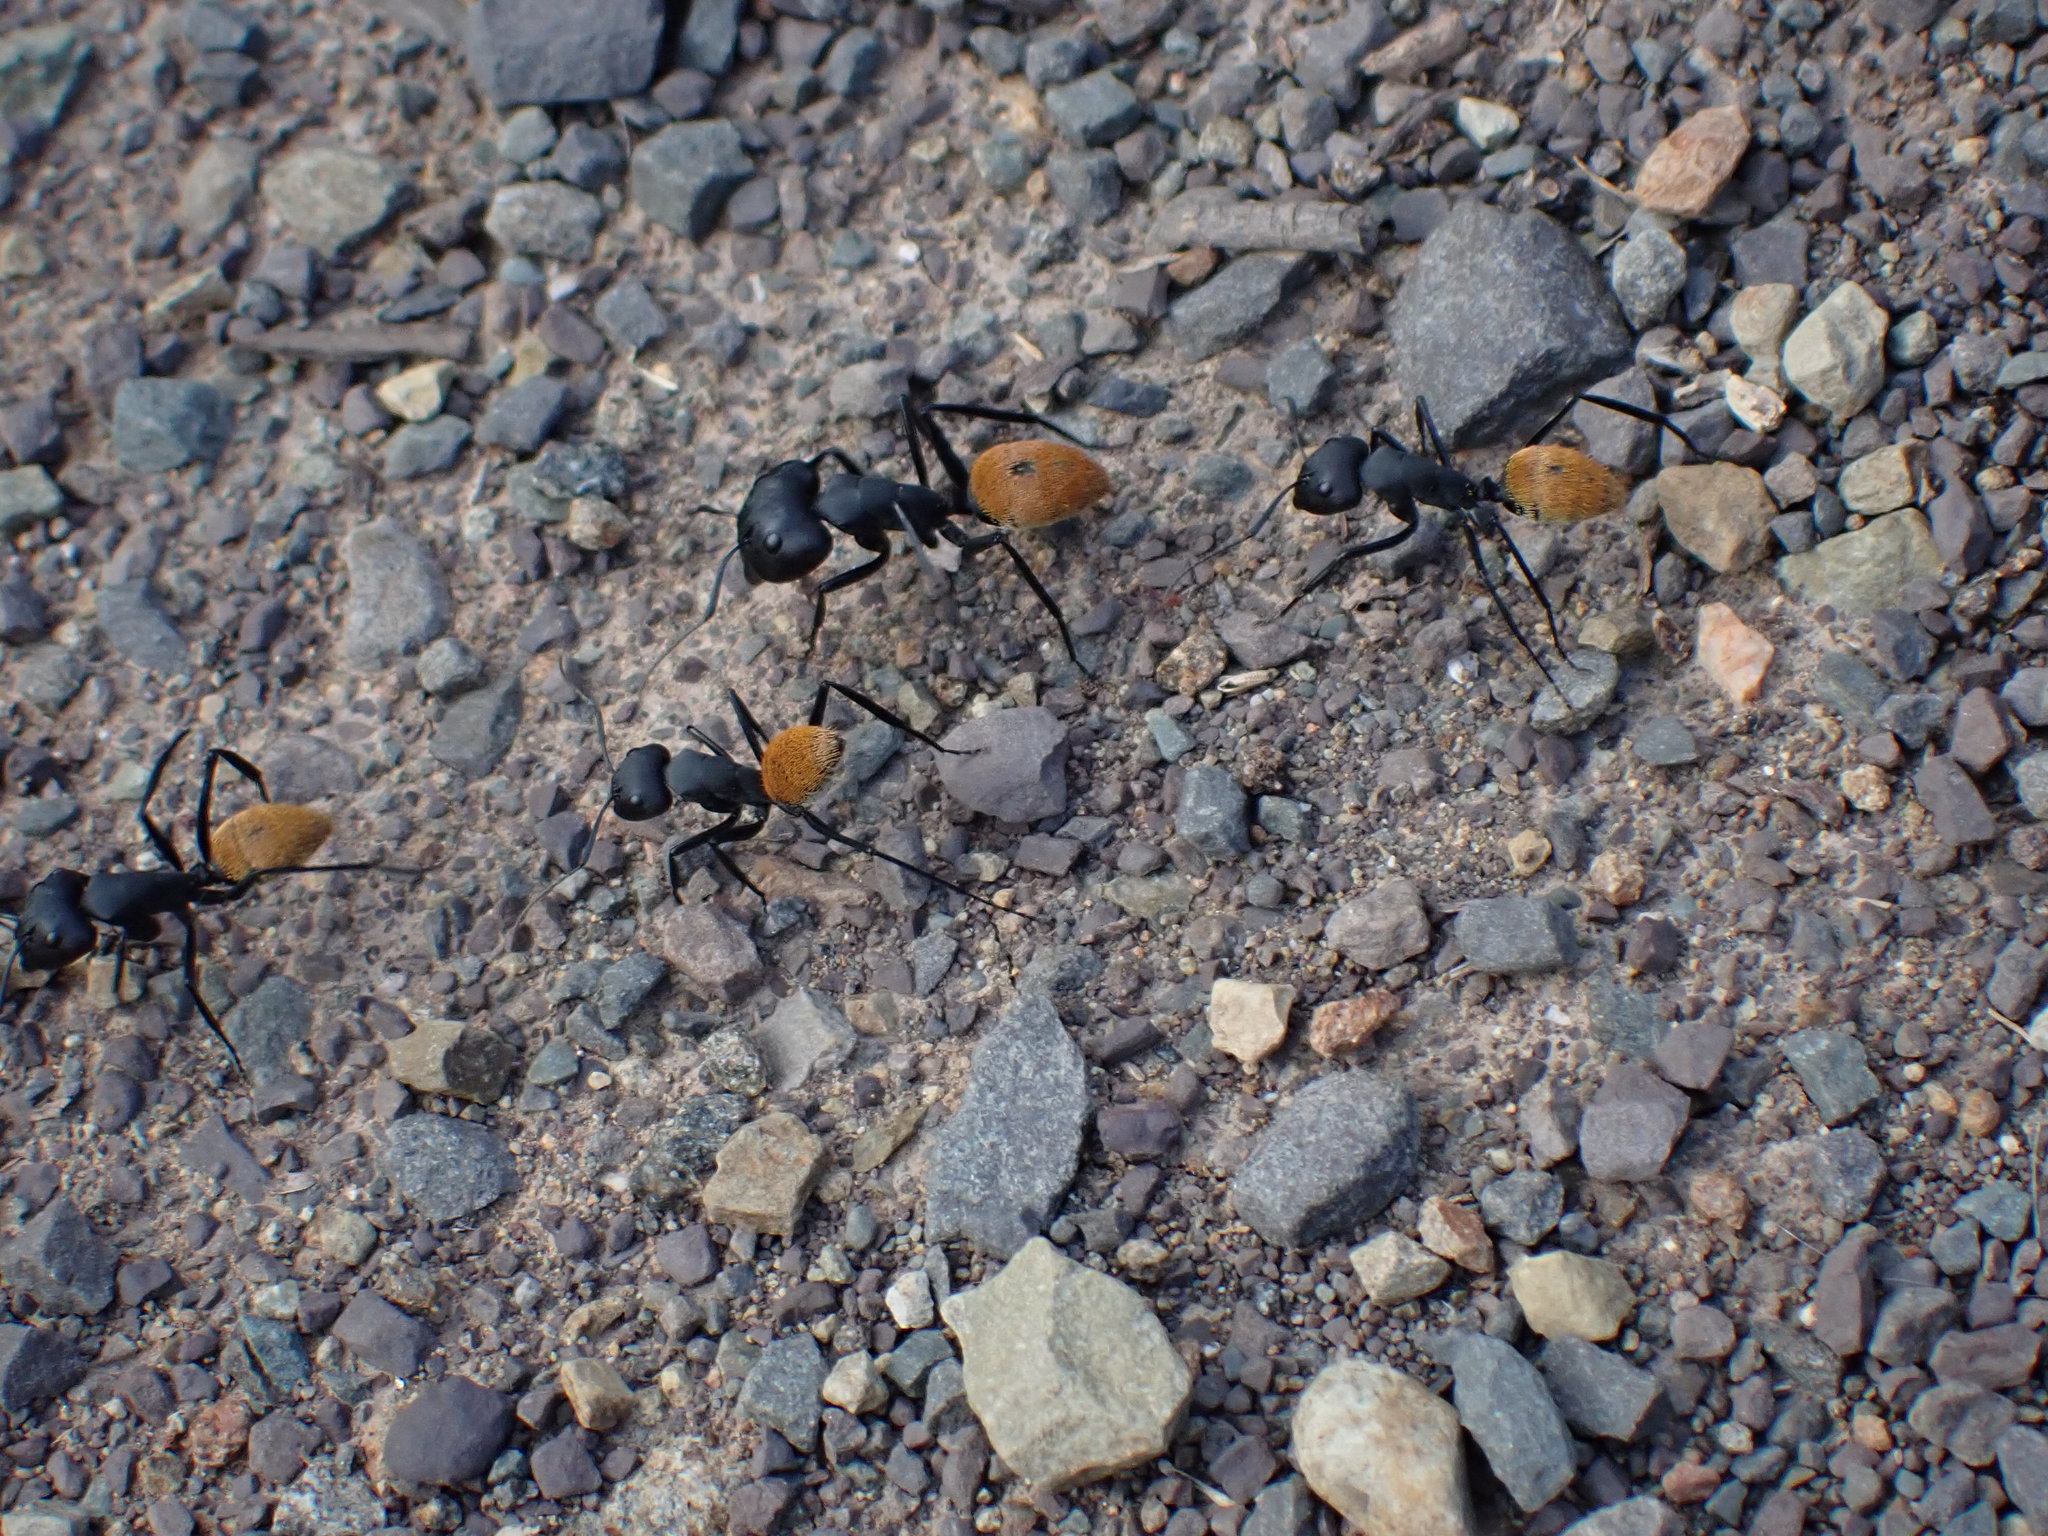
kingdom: Animalia
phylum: Arthropoda
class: Insecta
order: Hymenoptera
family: Formicidae
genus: Camponotus
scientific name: Camponotus fulvopilosus
